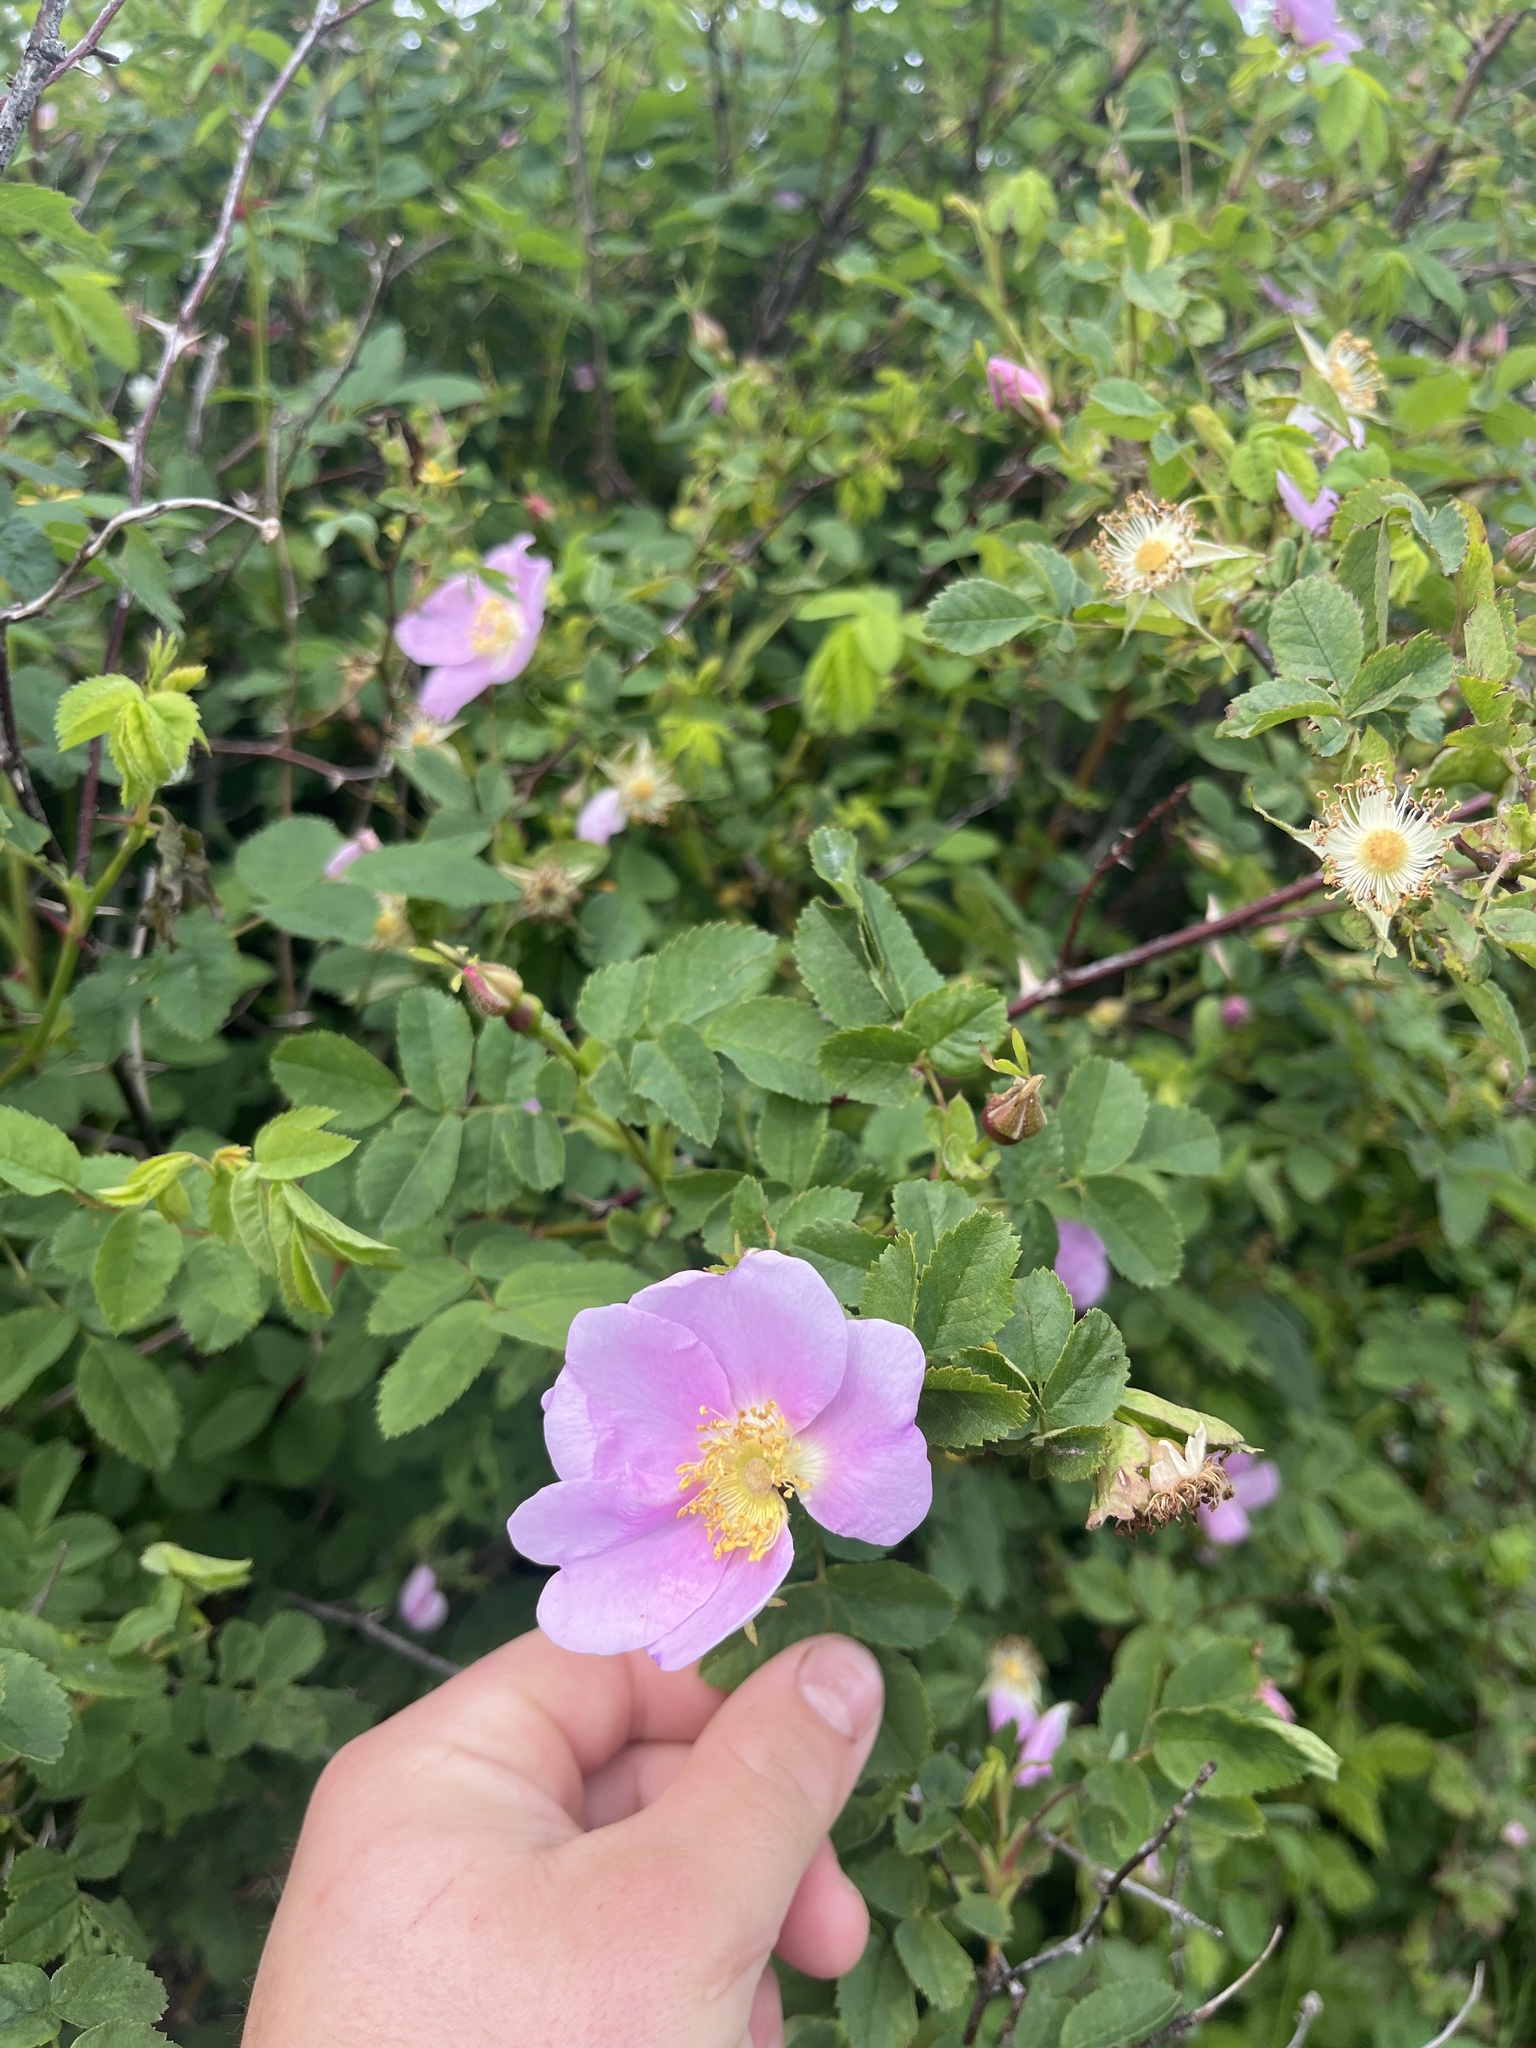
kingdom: Plantae
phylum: Tracheophyta
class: Magnoliopsida
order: Rosales
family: Rosaceae
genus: Rosa
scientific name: Rosa nutkana
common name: Nootka rose
